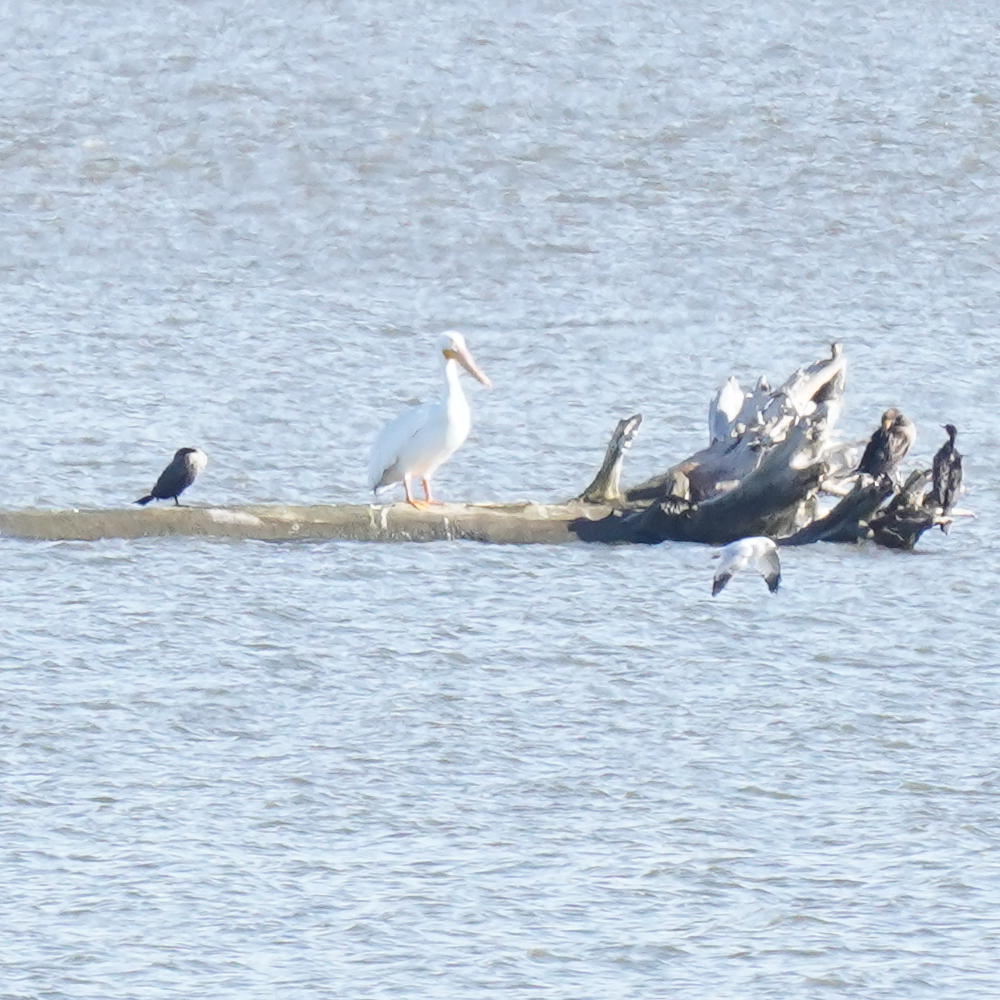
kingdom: Animalia
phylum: Chordata
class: Aves
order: Pelecaniformes
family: Pelecanidae
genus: Pelecanus
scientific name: Pelecanus erythrorhynchos
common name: American white pelican
